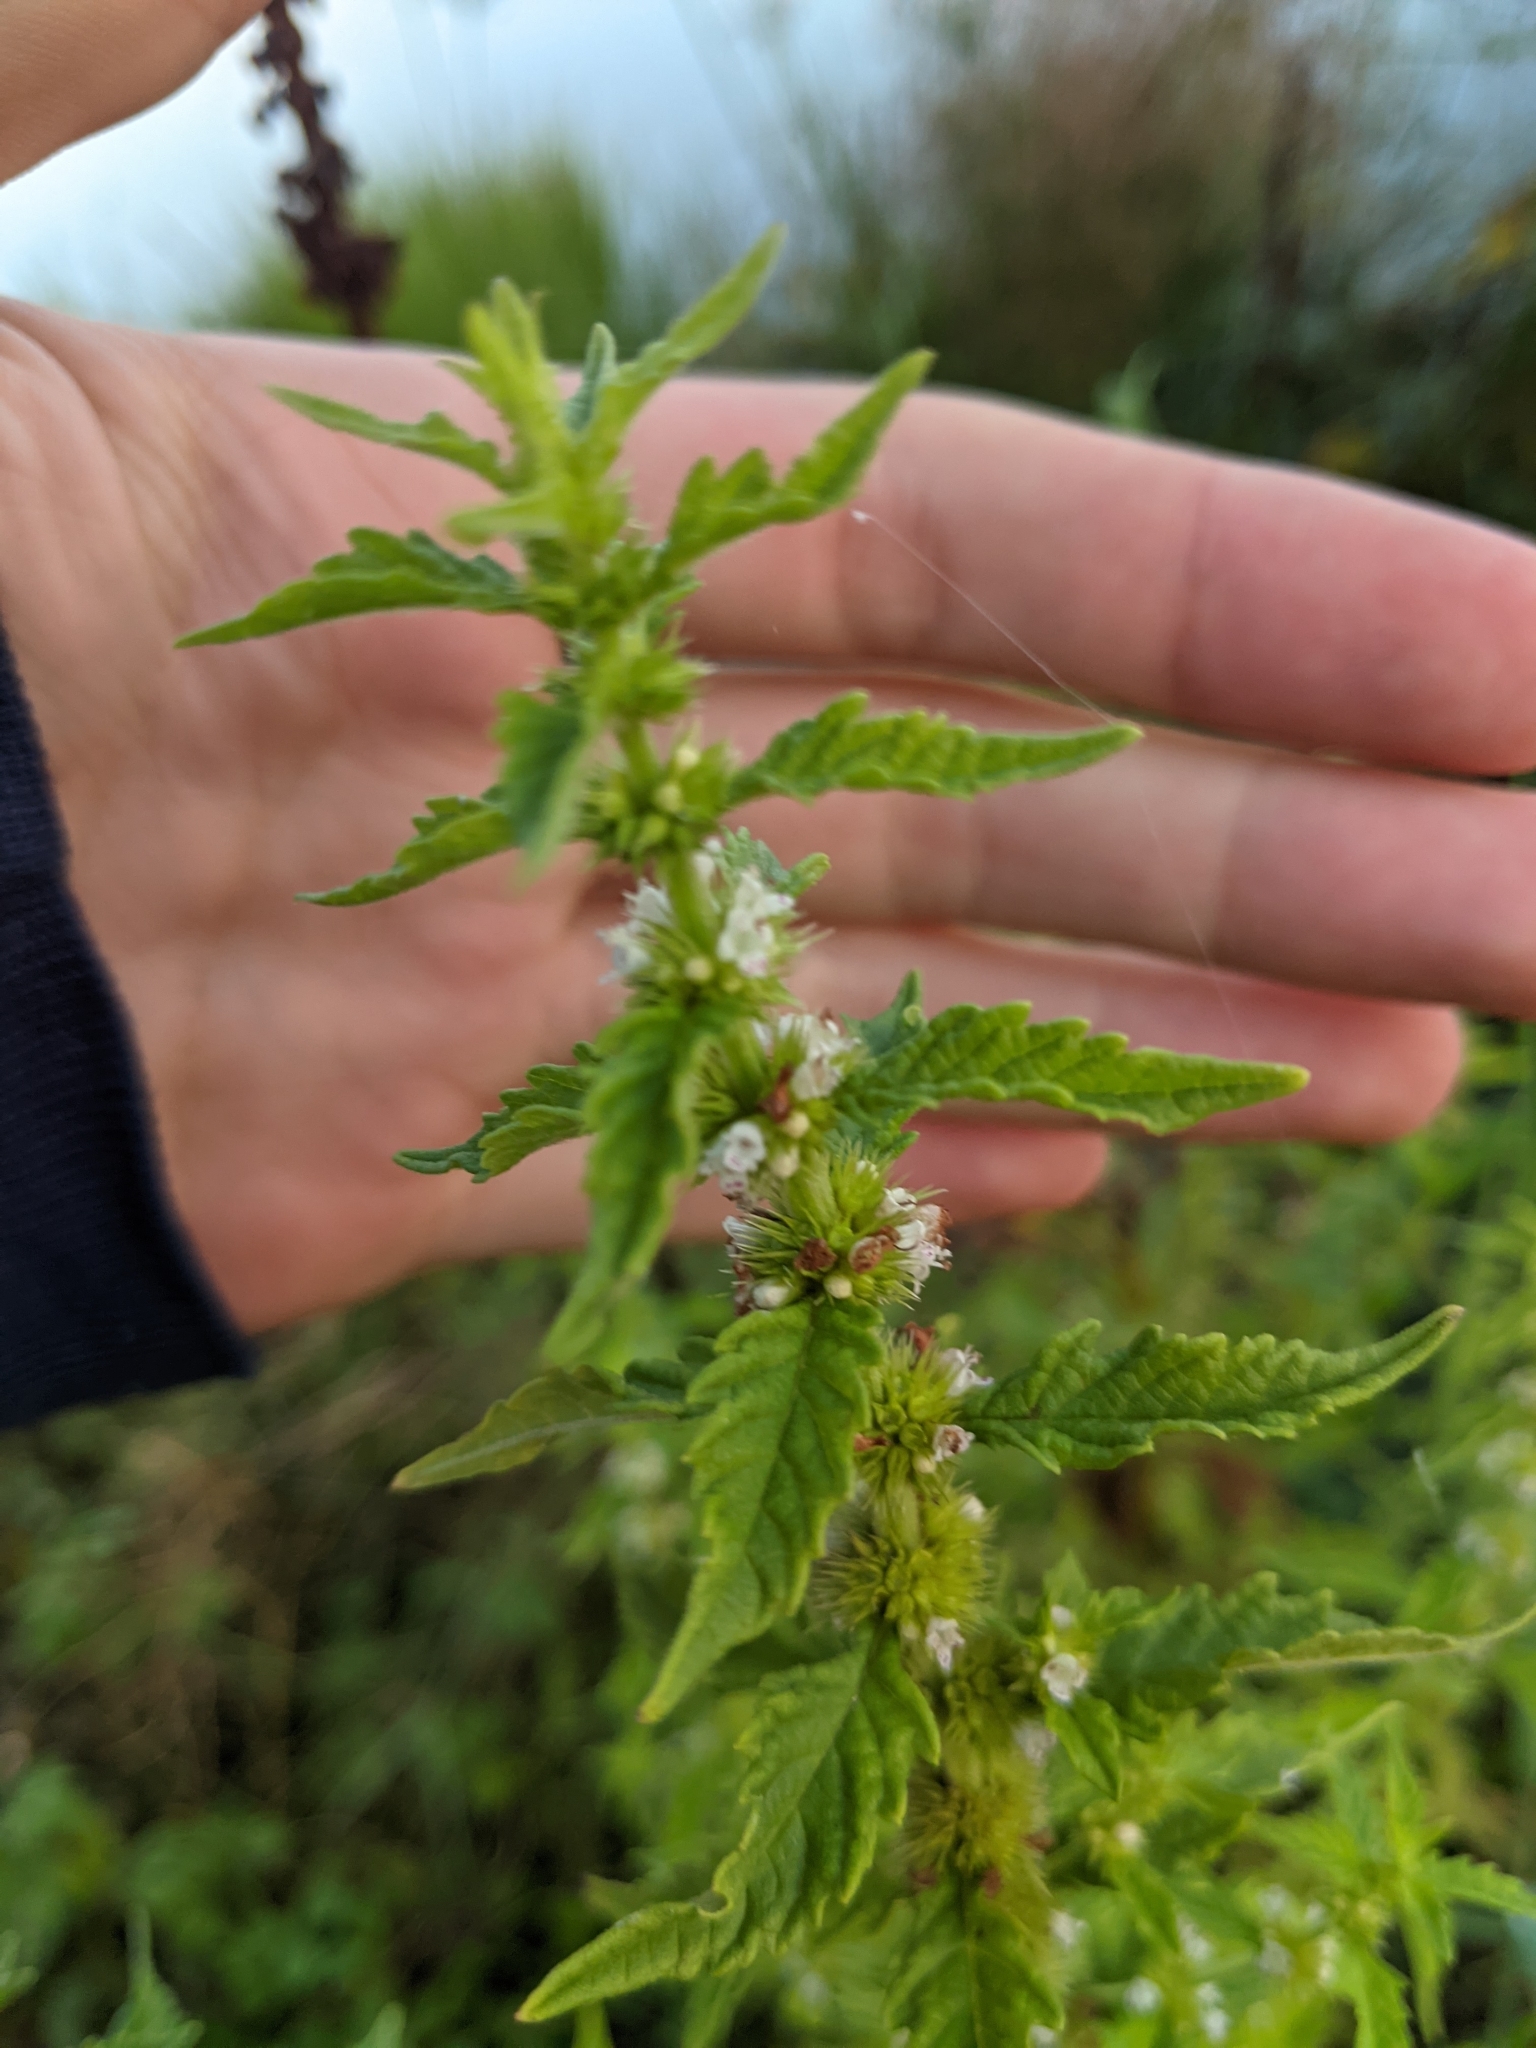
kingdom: Plantae
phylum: Tracheophyta
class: Magnoliopsida
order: Lamiales
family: Lamiaceae
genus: Lycopus
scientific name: Lycopus europaeus
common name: European bugleweed
